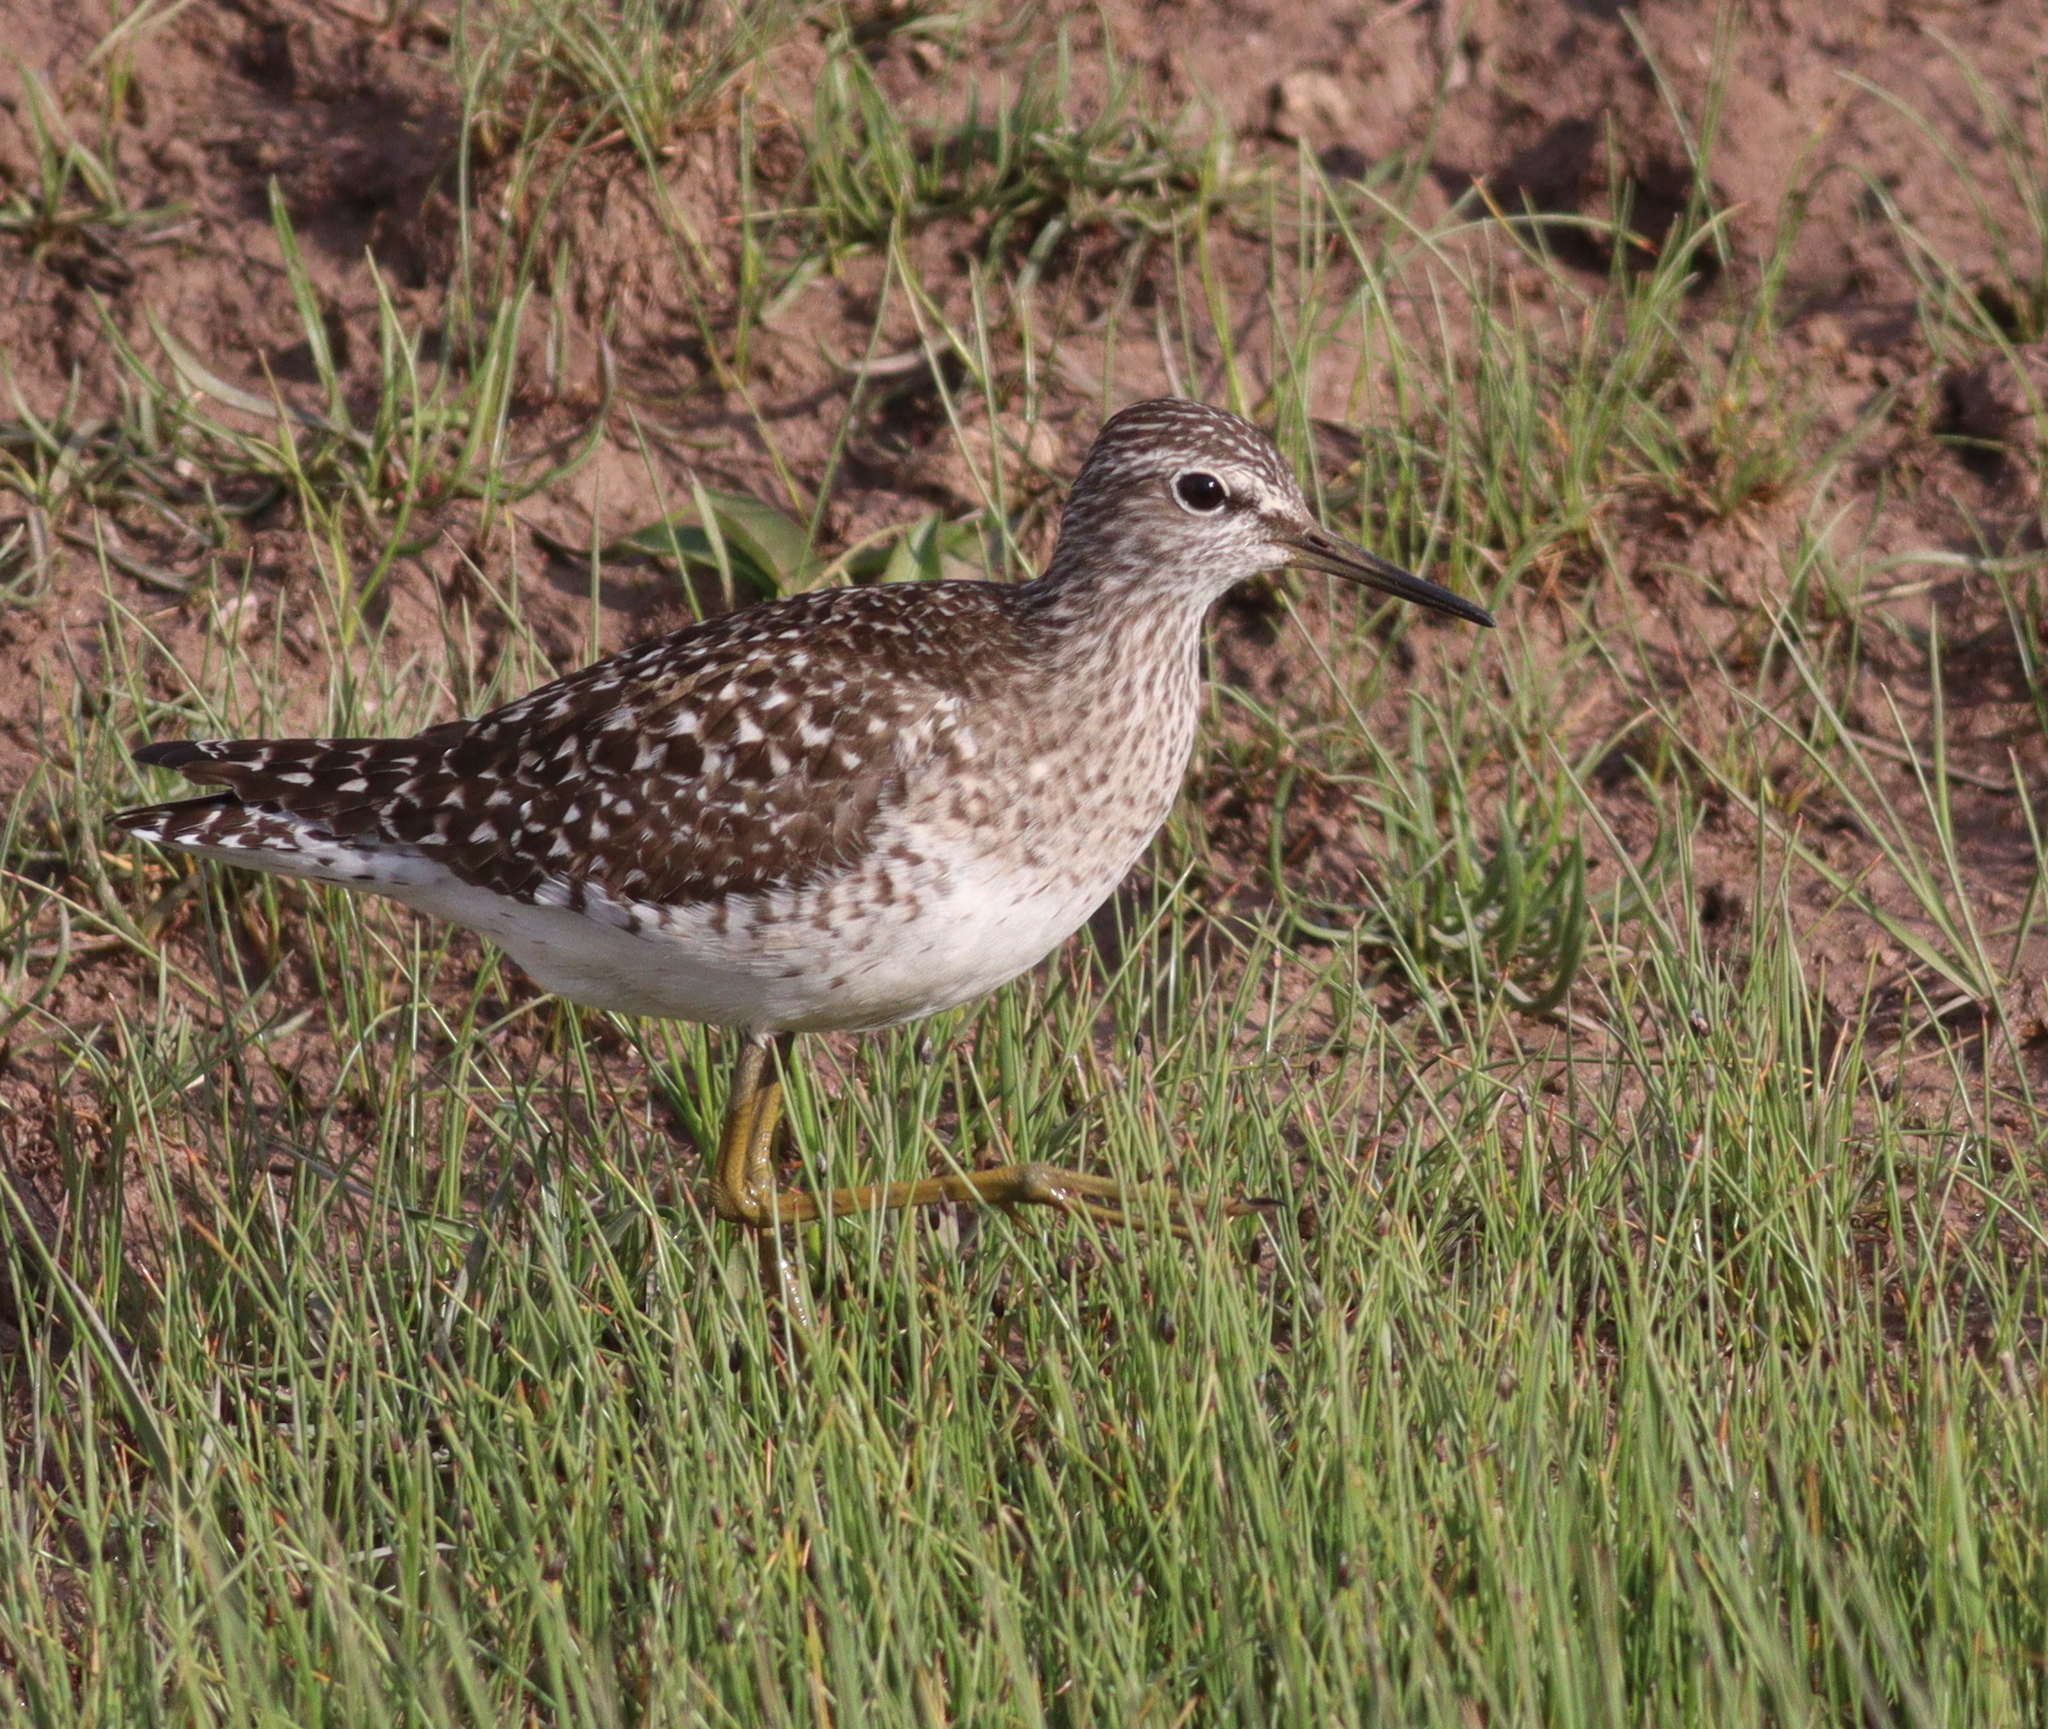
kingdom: Animalia
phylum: Chordata
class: Aves
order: Charadriiformes
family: Scolopacidae
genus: Tringa
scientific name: Tringa glareola
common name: Wood sandpiper
